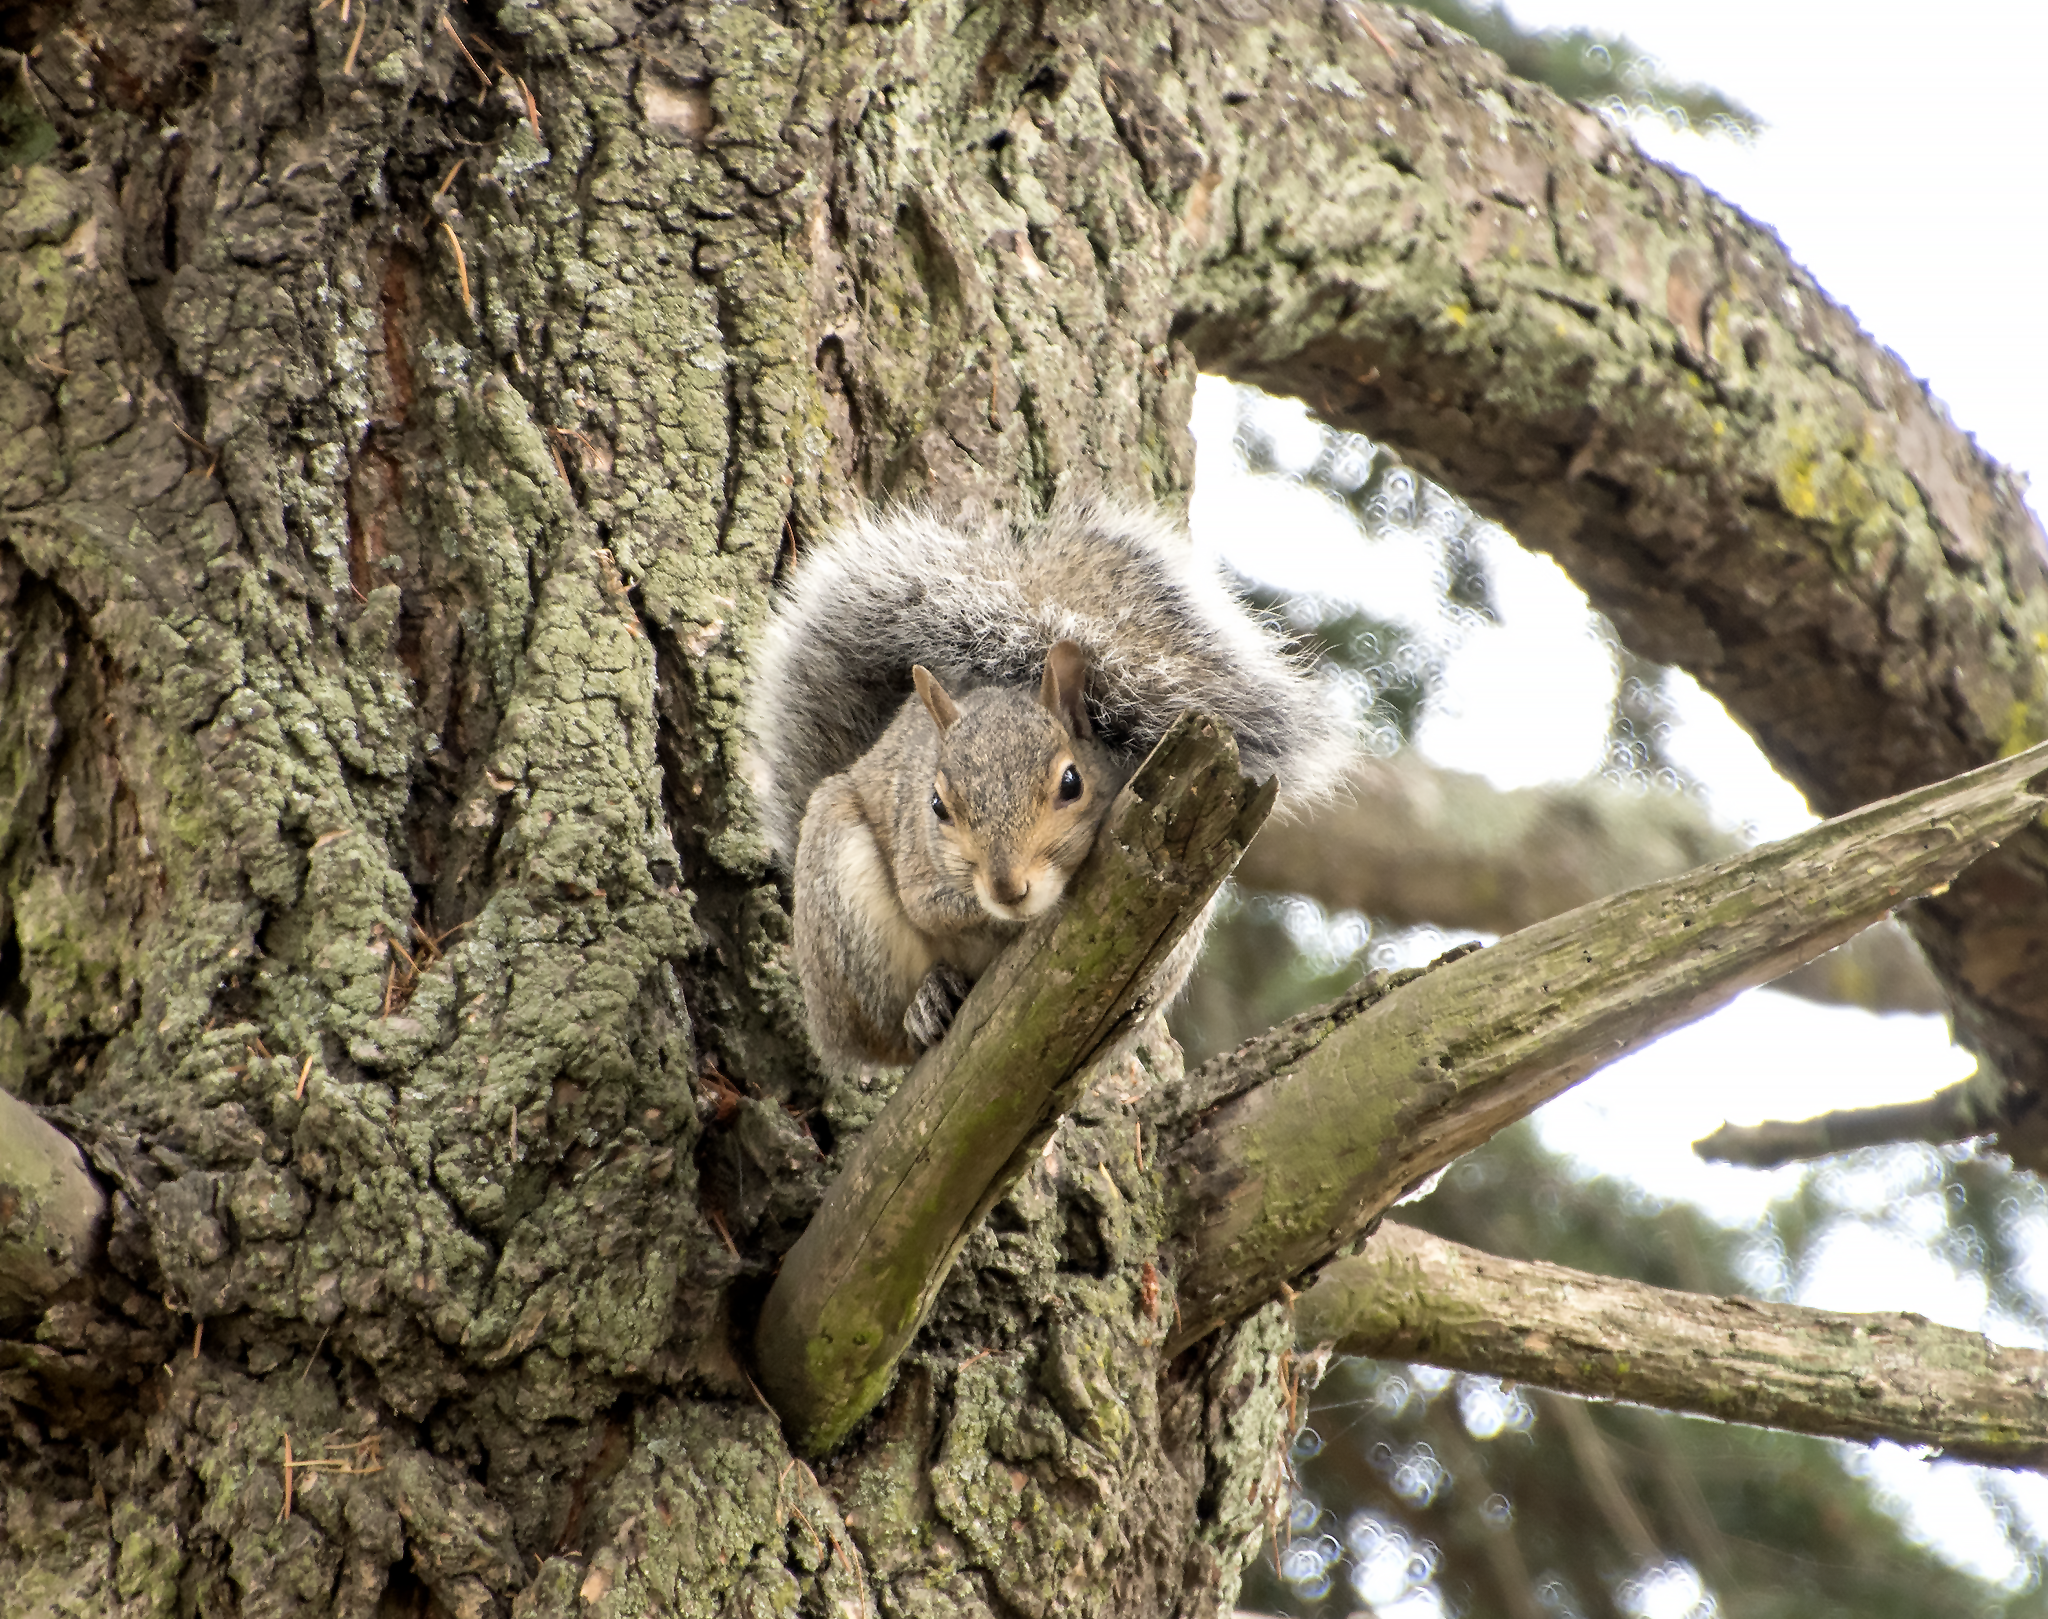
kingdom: Animalia
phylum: Chordata
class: Mammalia
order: Rodentia
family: Sciuridae
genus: Sciurus
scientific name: Sciurus carolinensis
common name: Eastern gray squirrel
